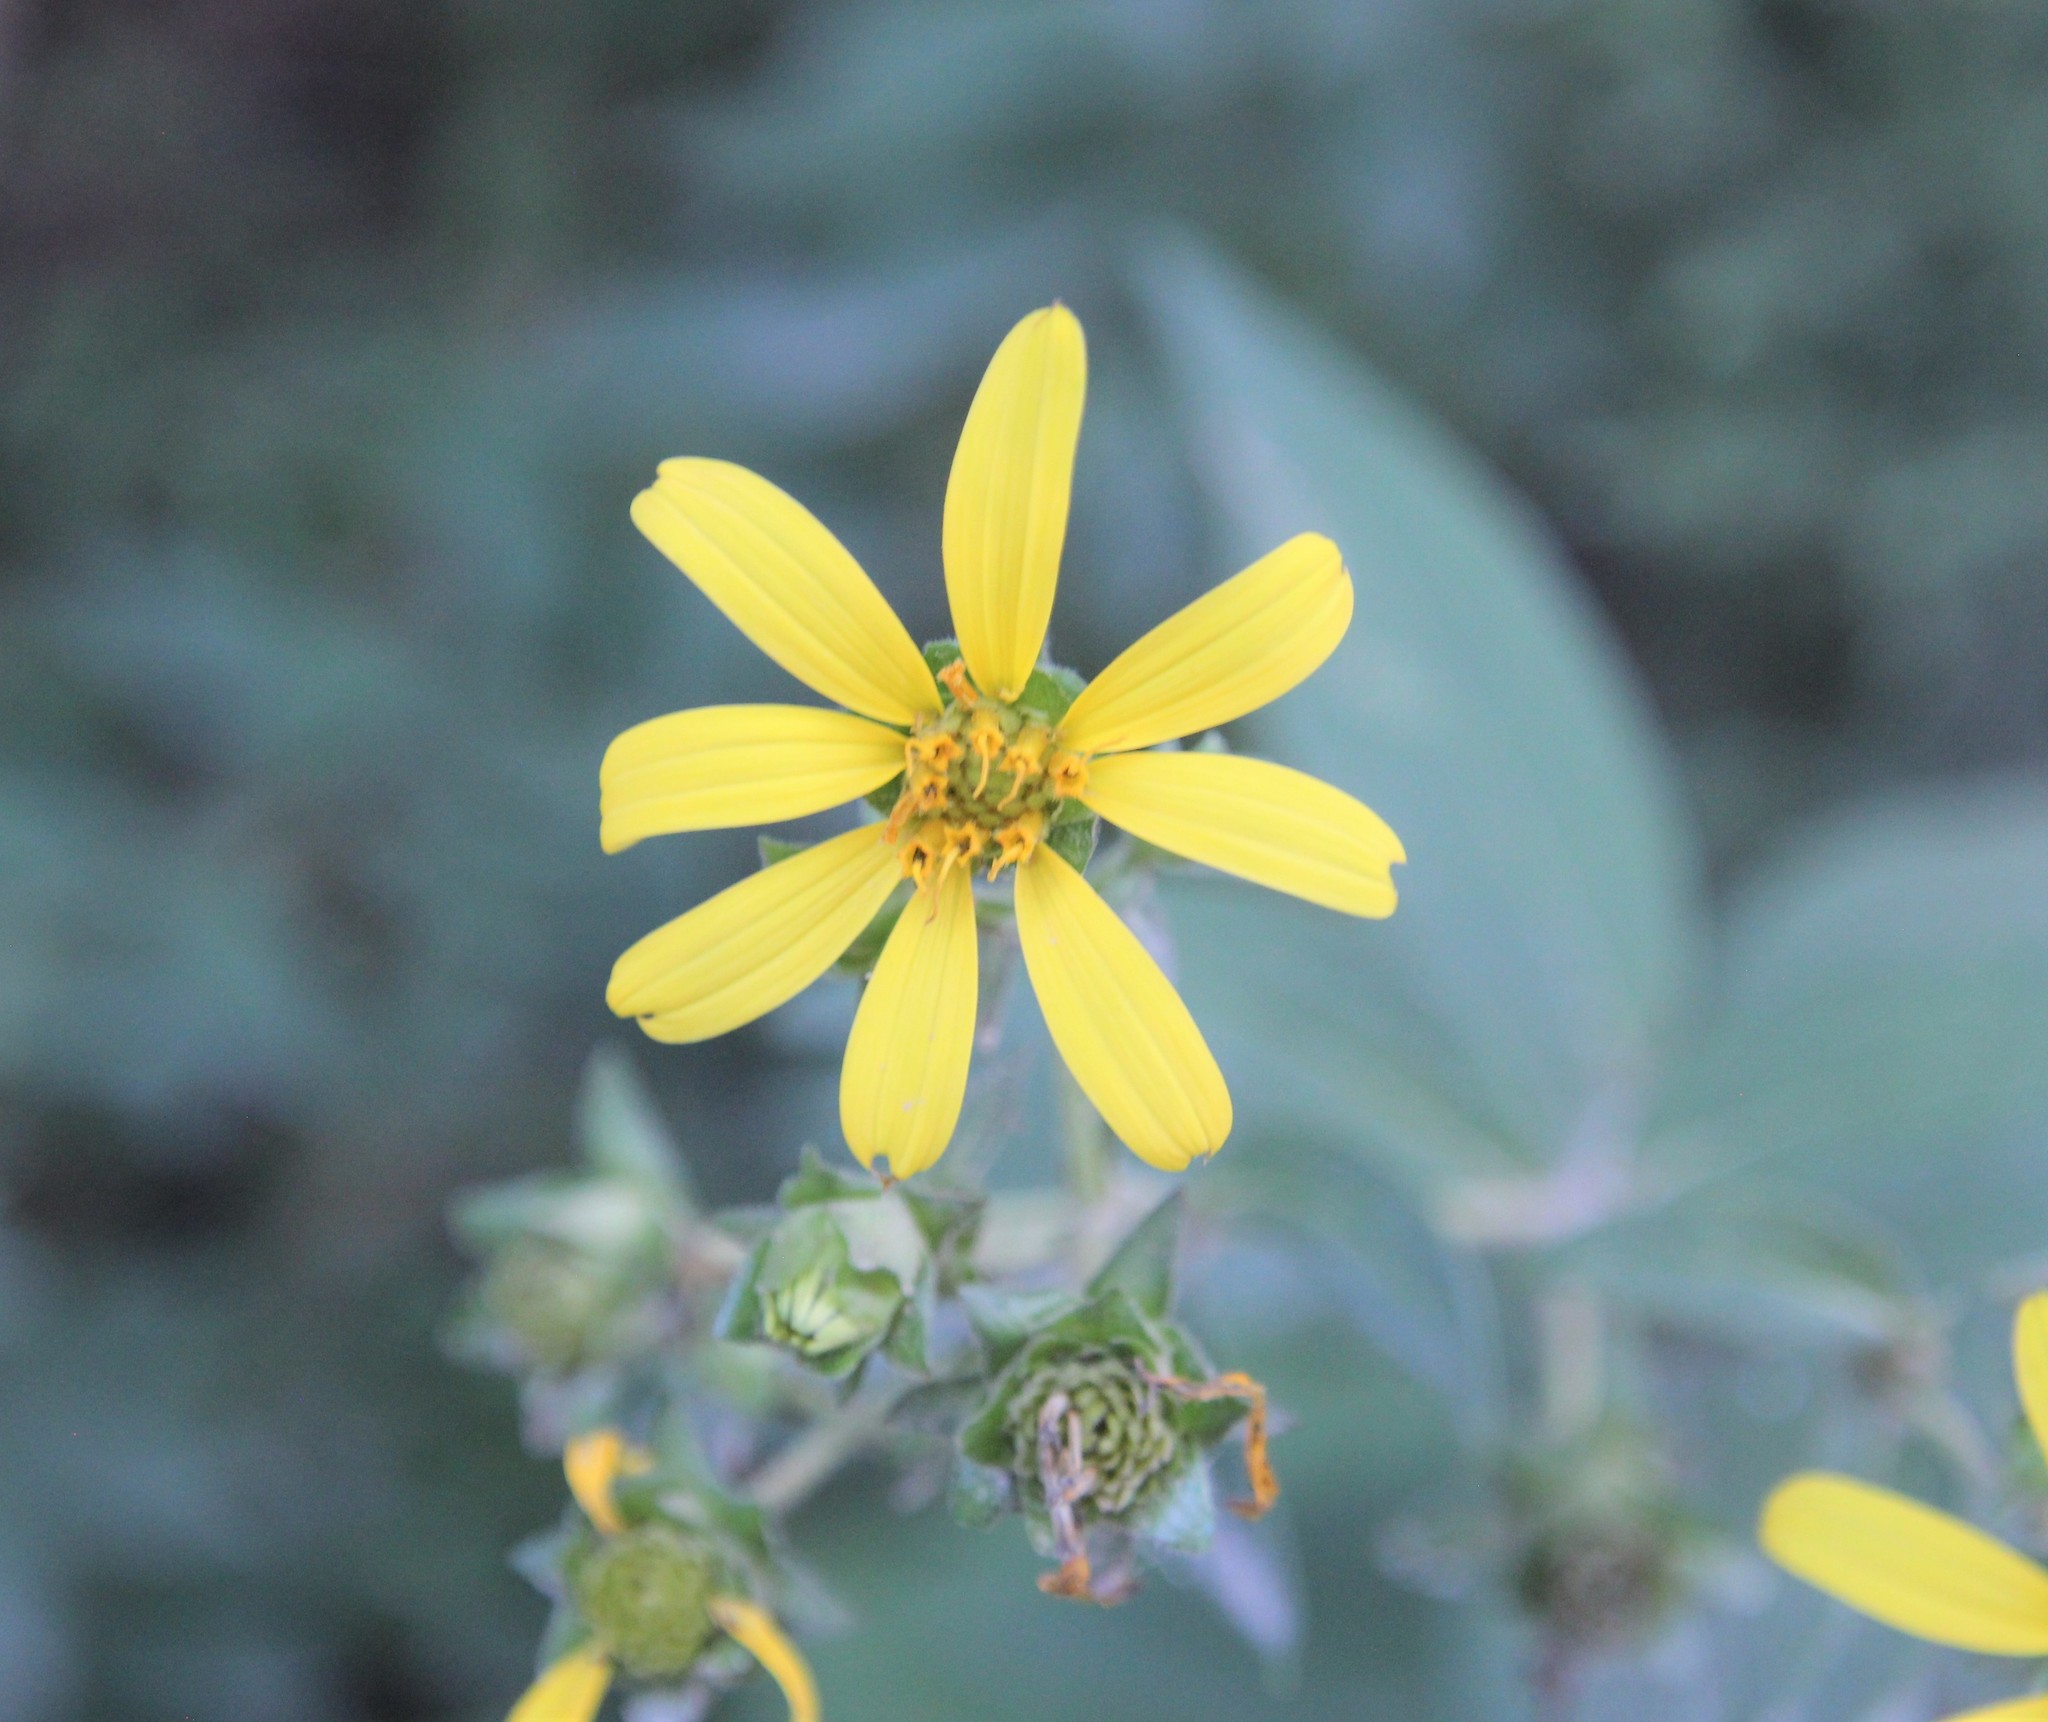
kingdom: Plantae
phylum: Tracheophyta
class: Magnoliopsida
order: Asterales
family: Asteraceae
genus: Silphium
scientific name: Silphium asteriscus
